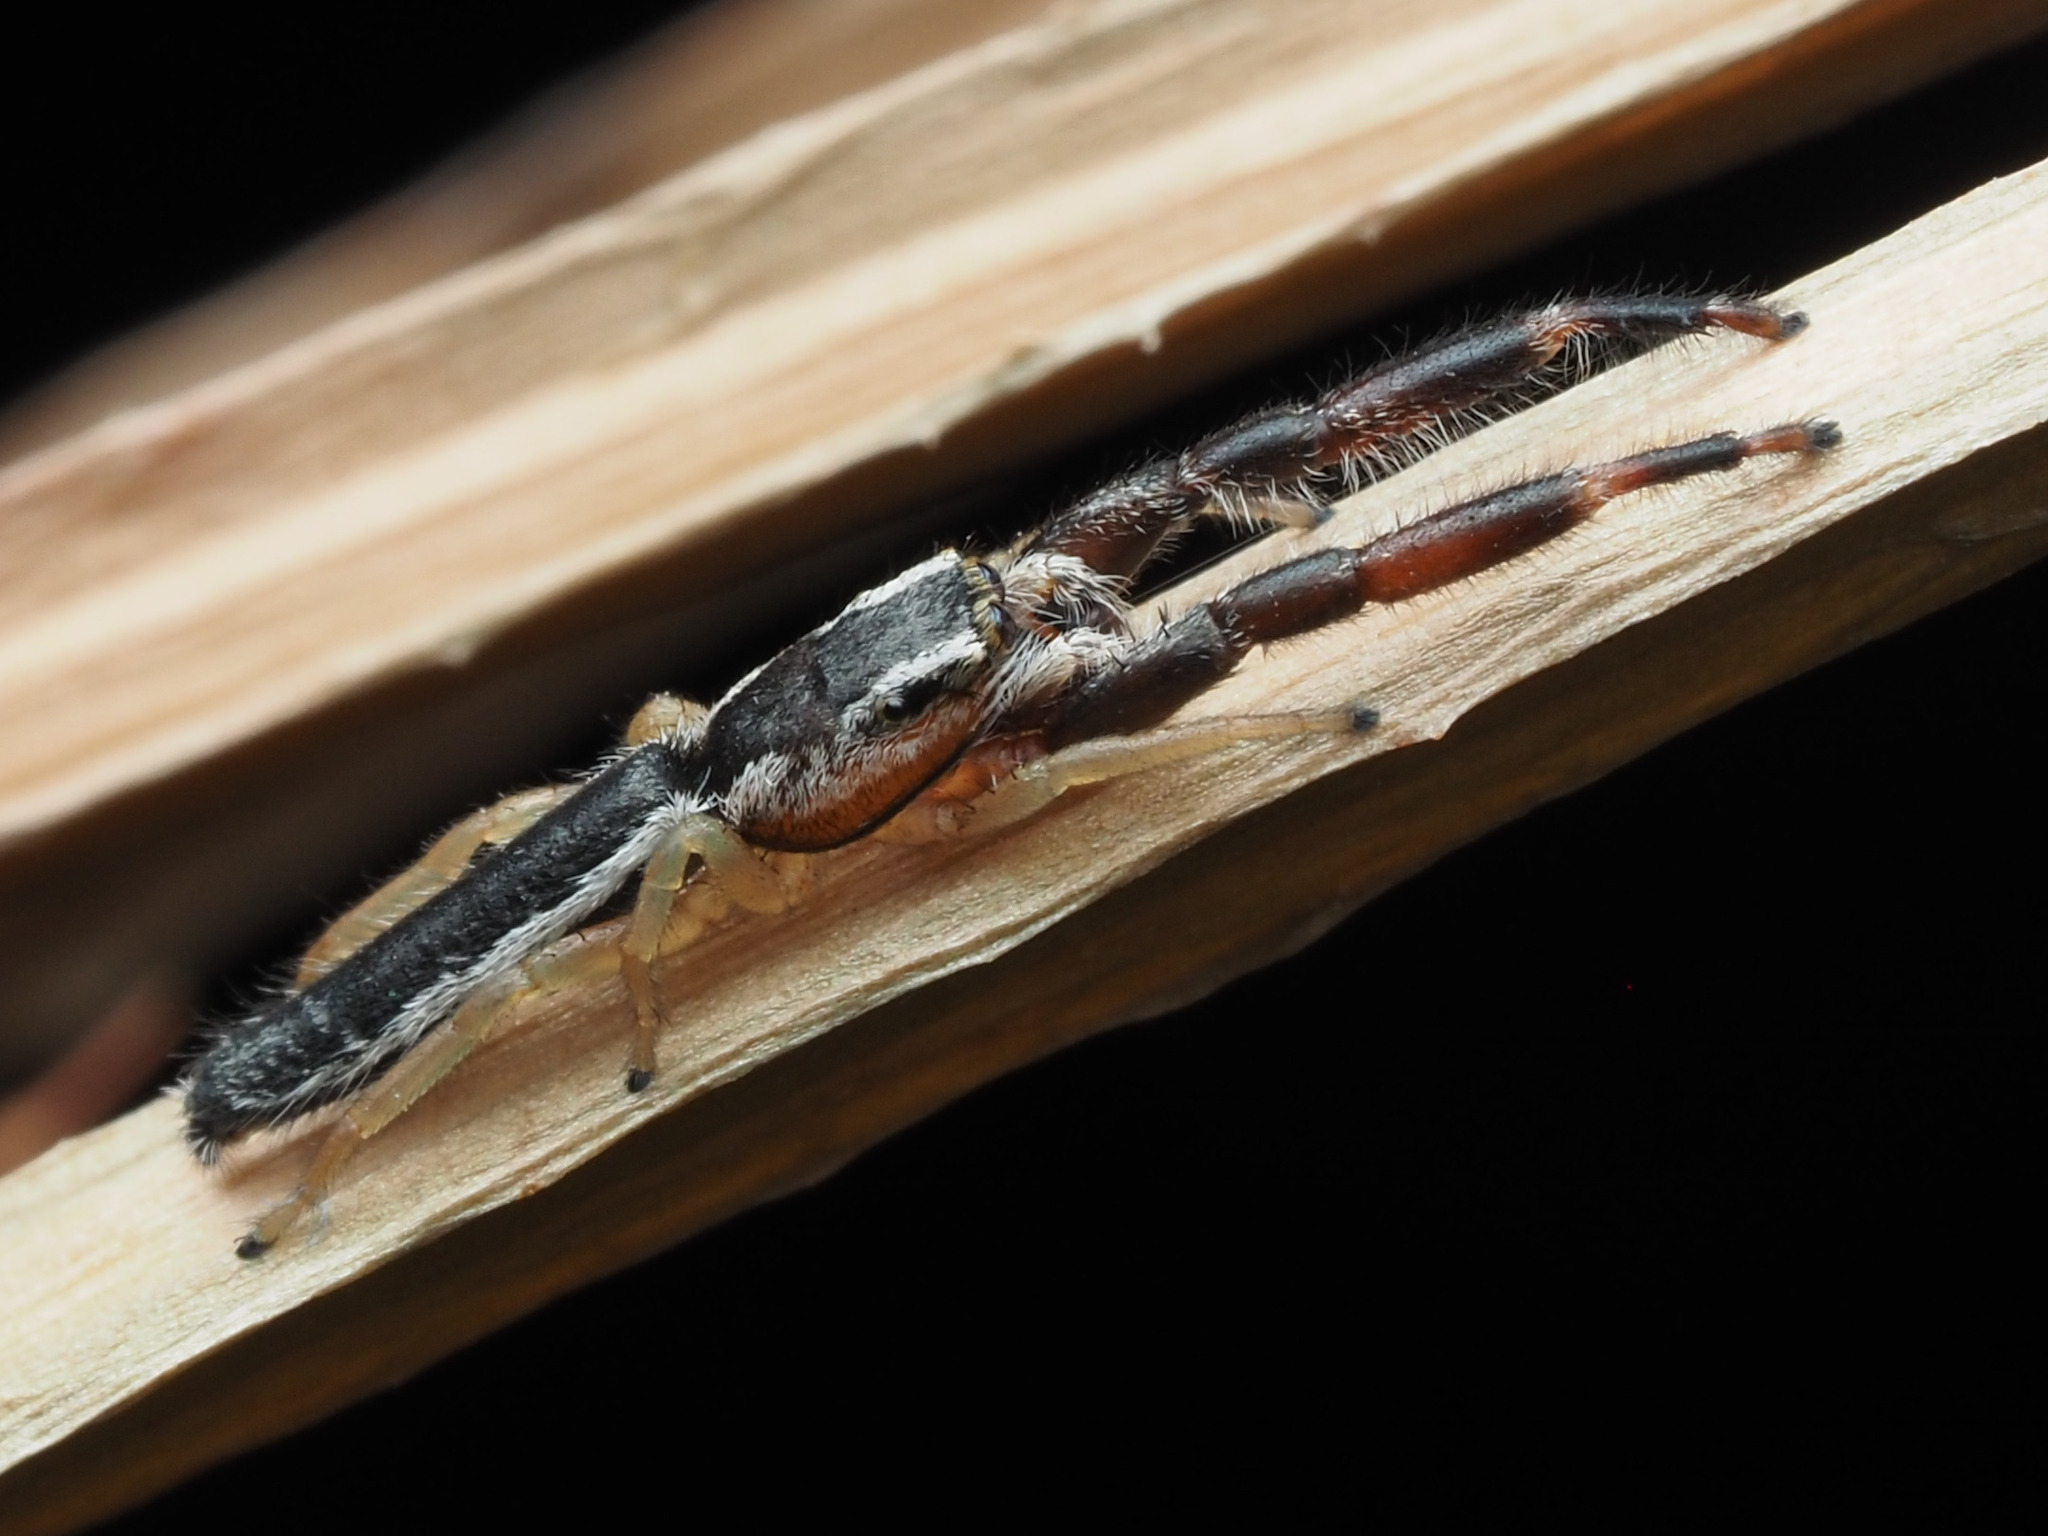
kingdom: Animalia
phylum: Arthropoda
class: Arachnida
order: Araneae
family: Salticidae
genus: Marpissa
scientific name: Marpissa pikei
